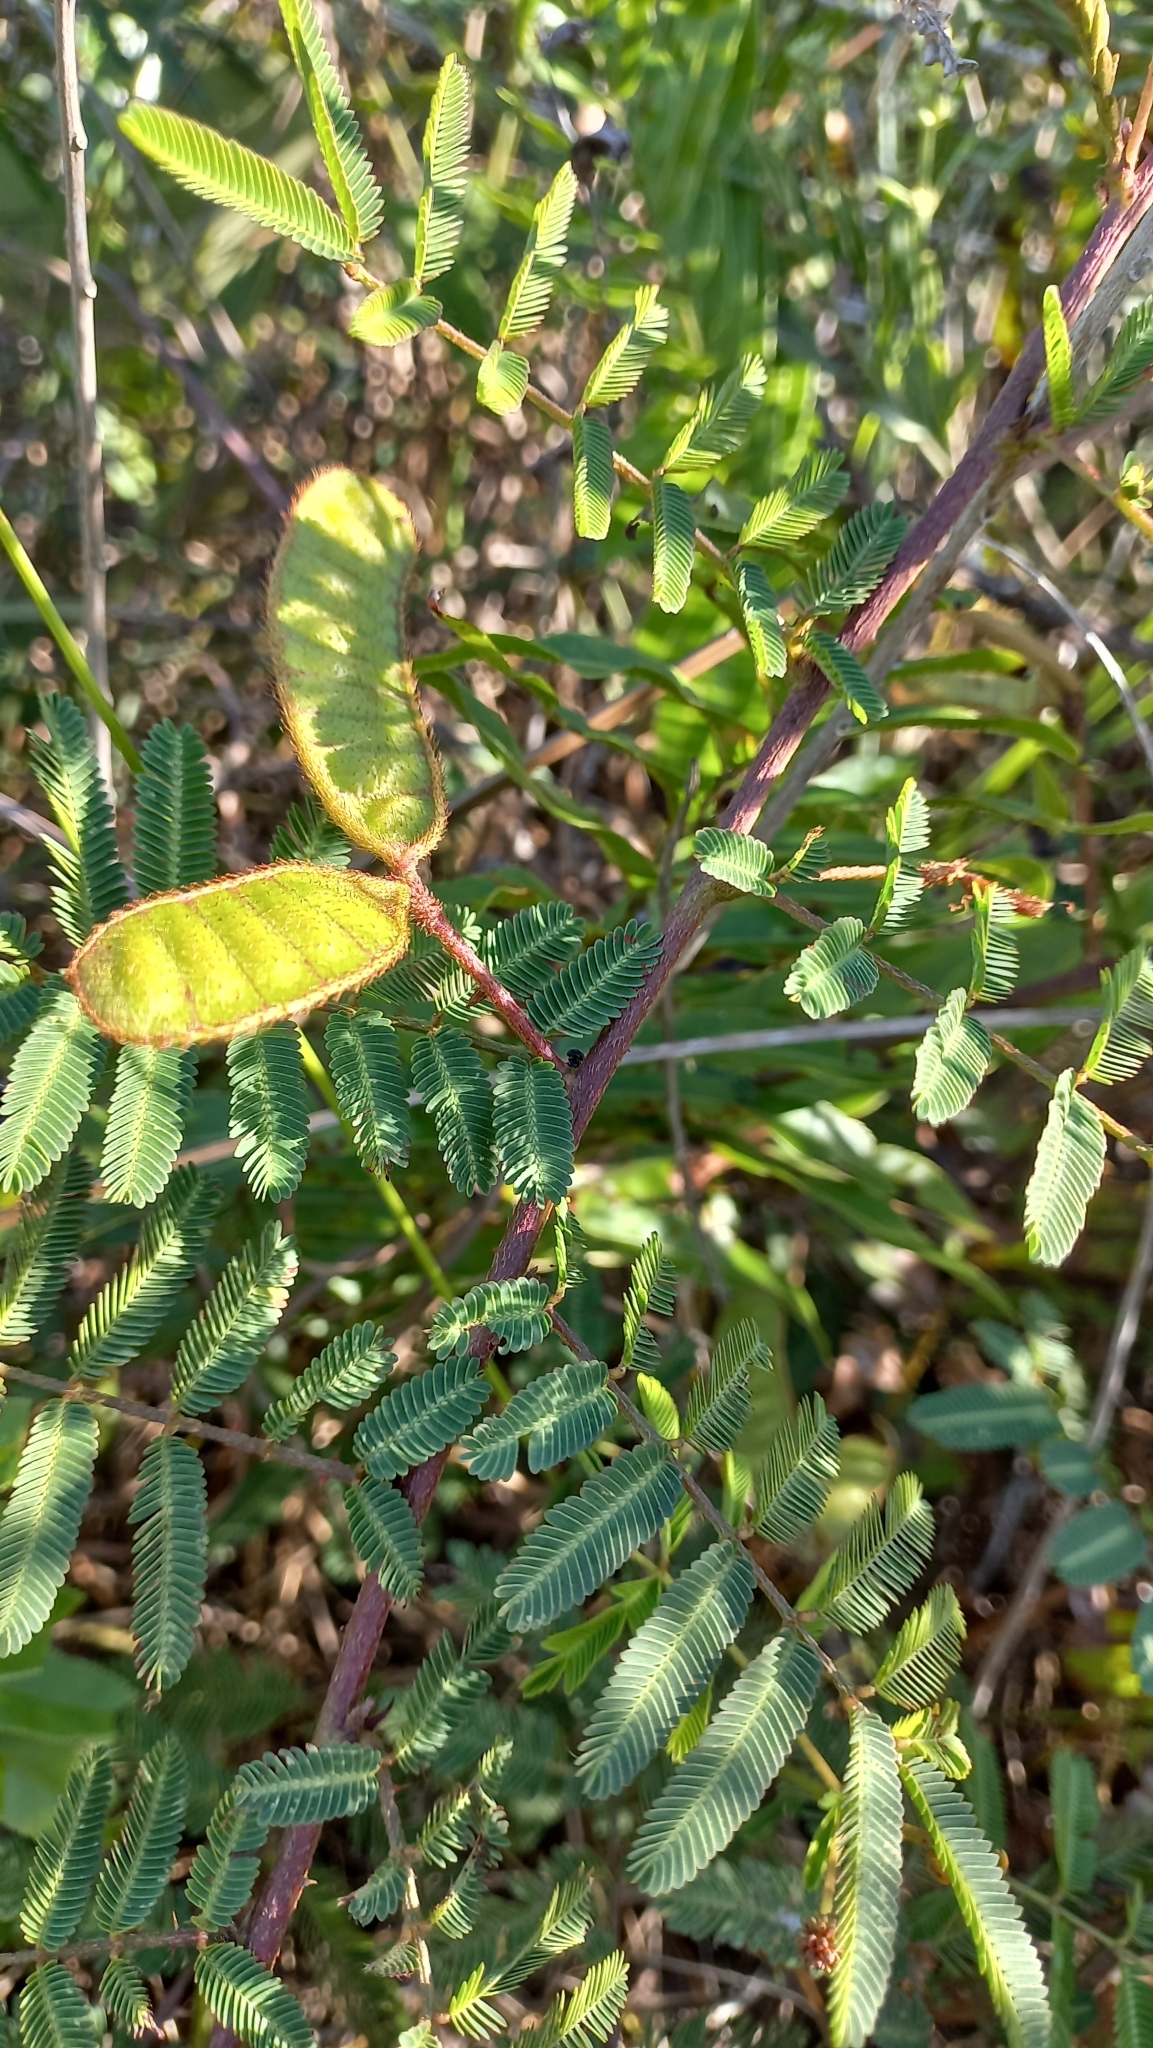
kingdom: Plantae
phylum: Tracheophyta
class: Magnoliopsida
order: Fabales
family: Fabaceae
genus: Mimosa
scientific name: Mimosa pigra
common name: Black mimosa
